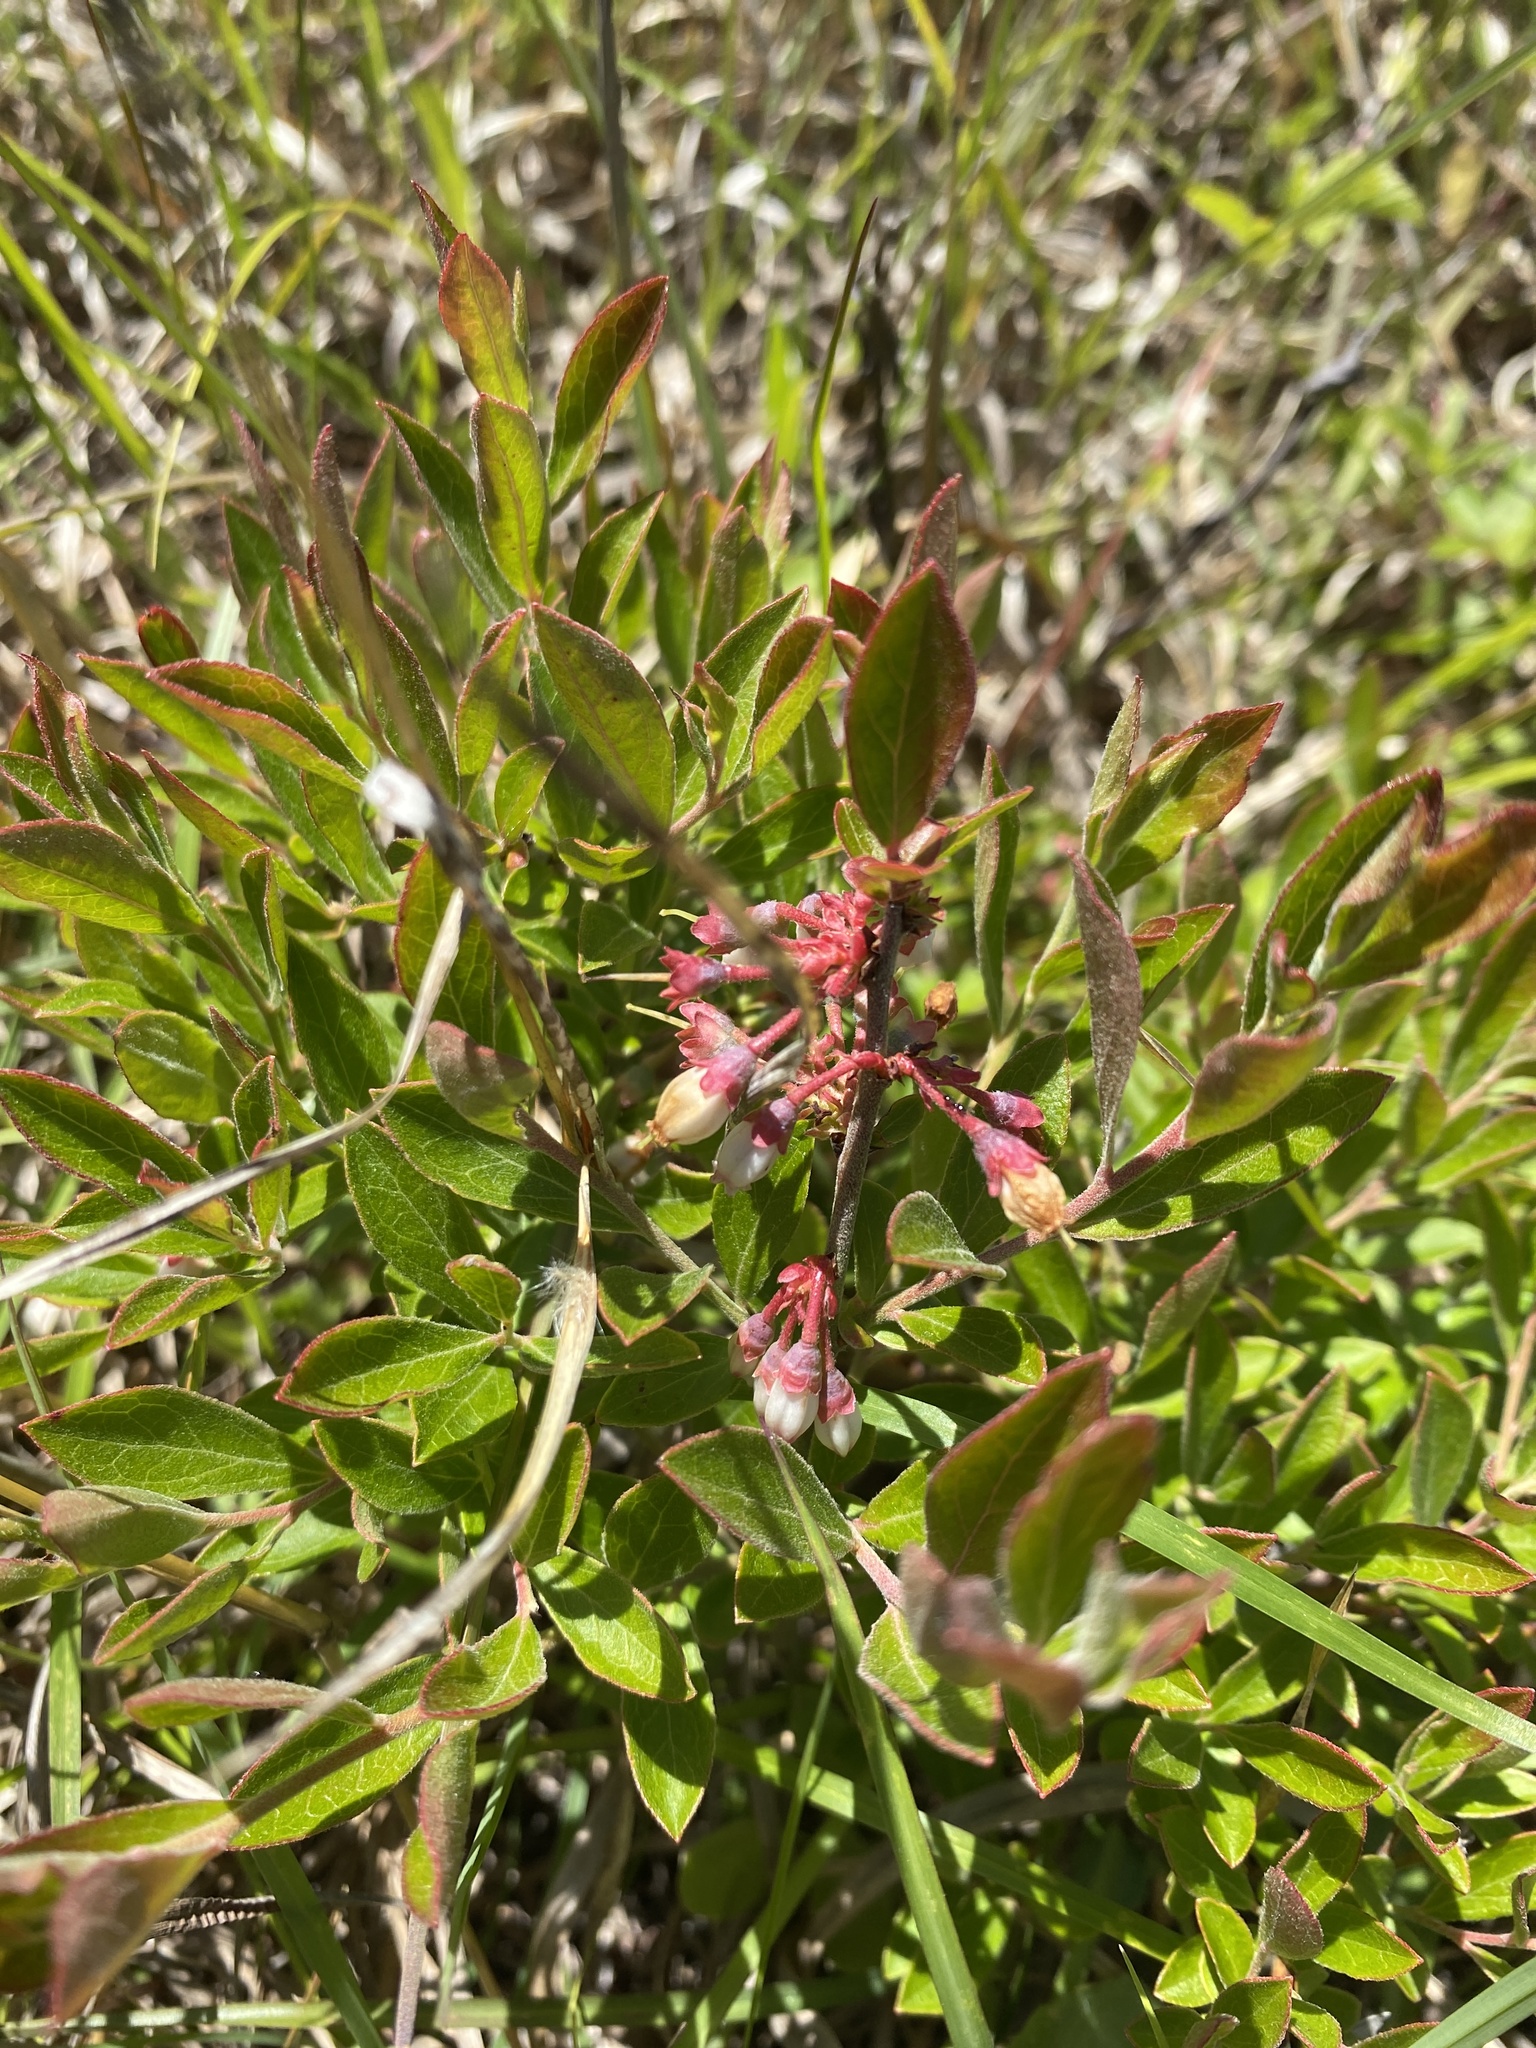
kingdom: Plantae
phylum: Tracheophyta
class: Magnoliopsida
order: Ericales
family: Ericaceae
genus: Vaccinium
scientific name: Vaccinium tenellum
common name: Southern blueberry
